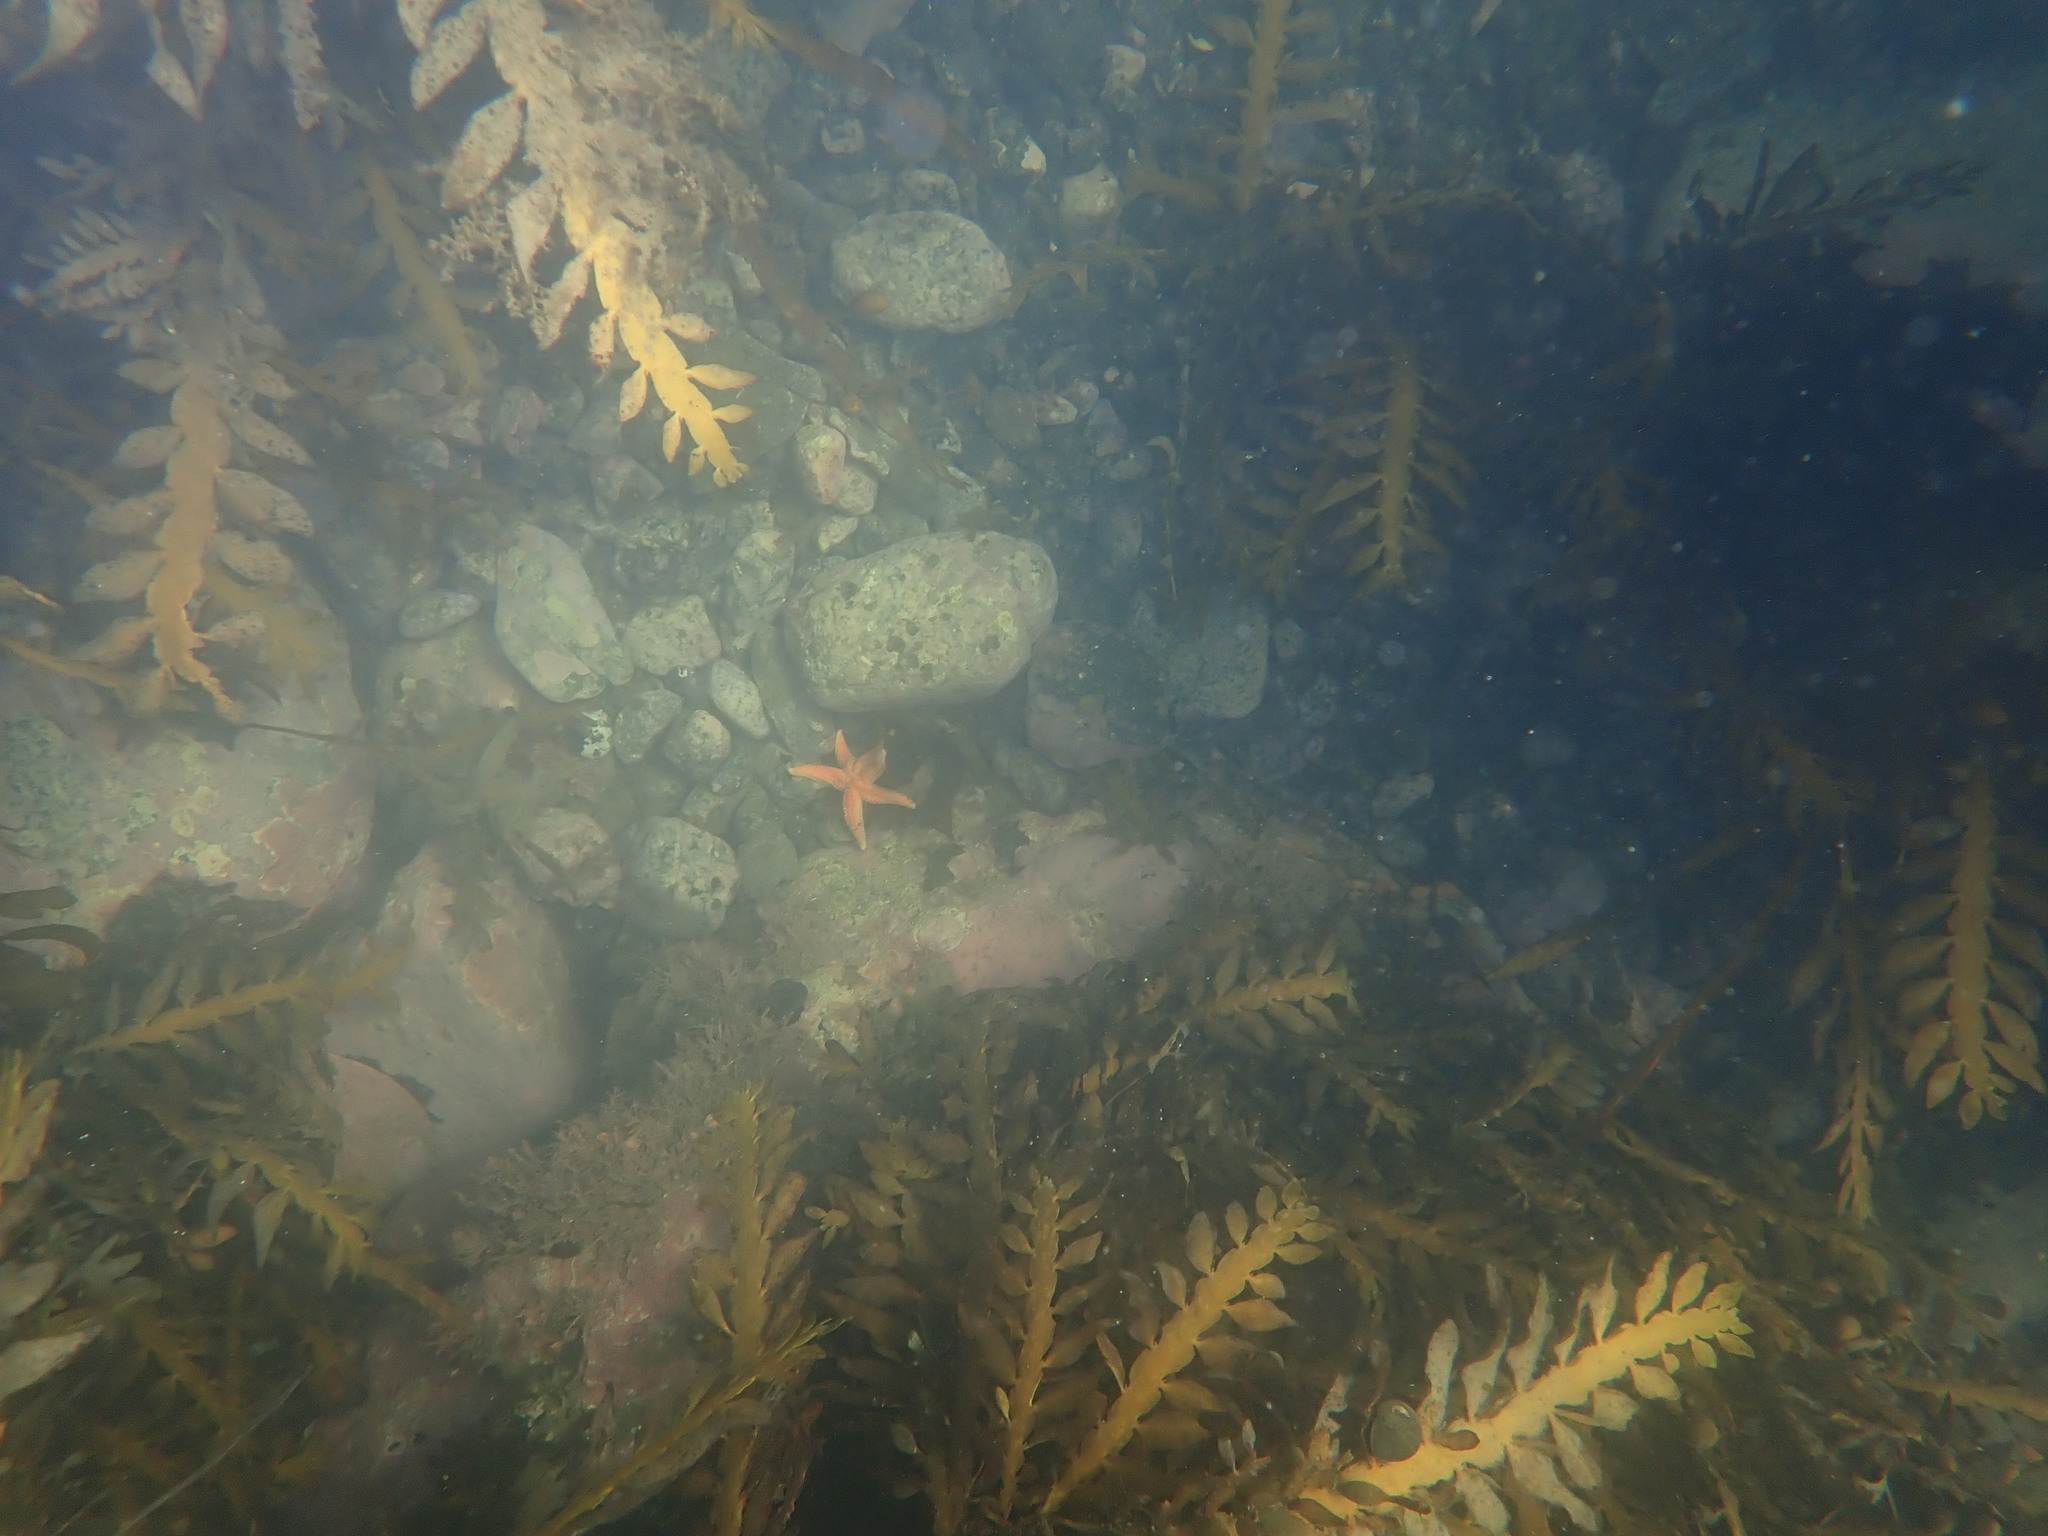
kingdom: Animalia
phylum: Echinodermata
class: Asteroidea
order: Forcipulatida
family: Stichasteridae
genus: Allostichaster
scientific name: Allostichaster insignis
